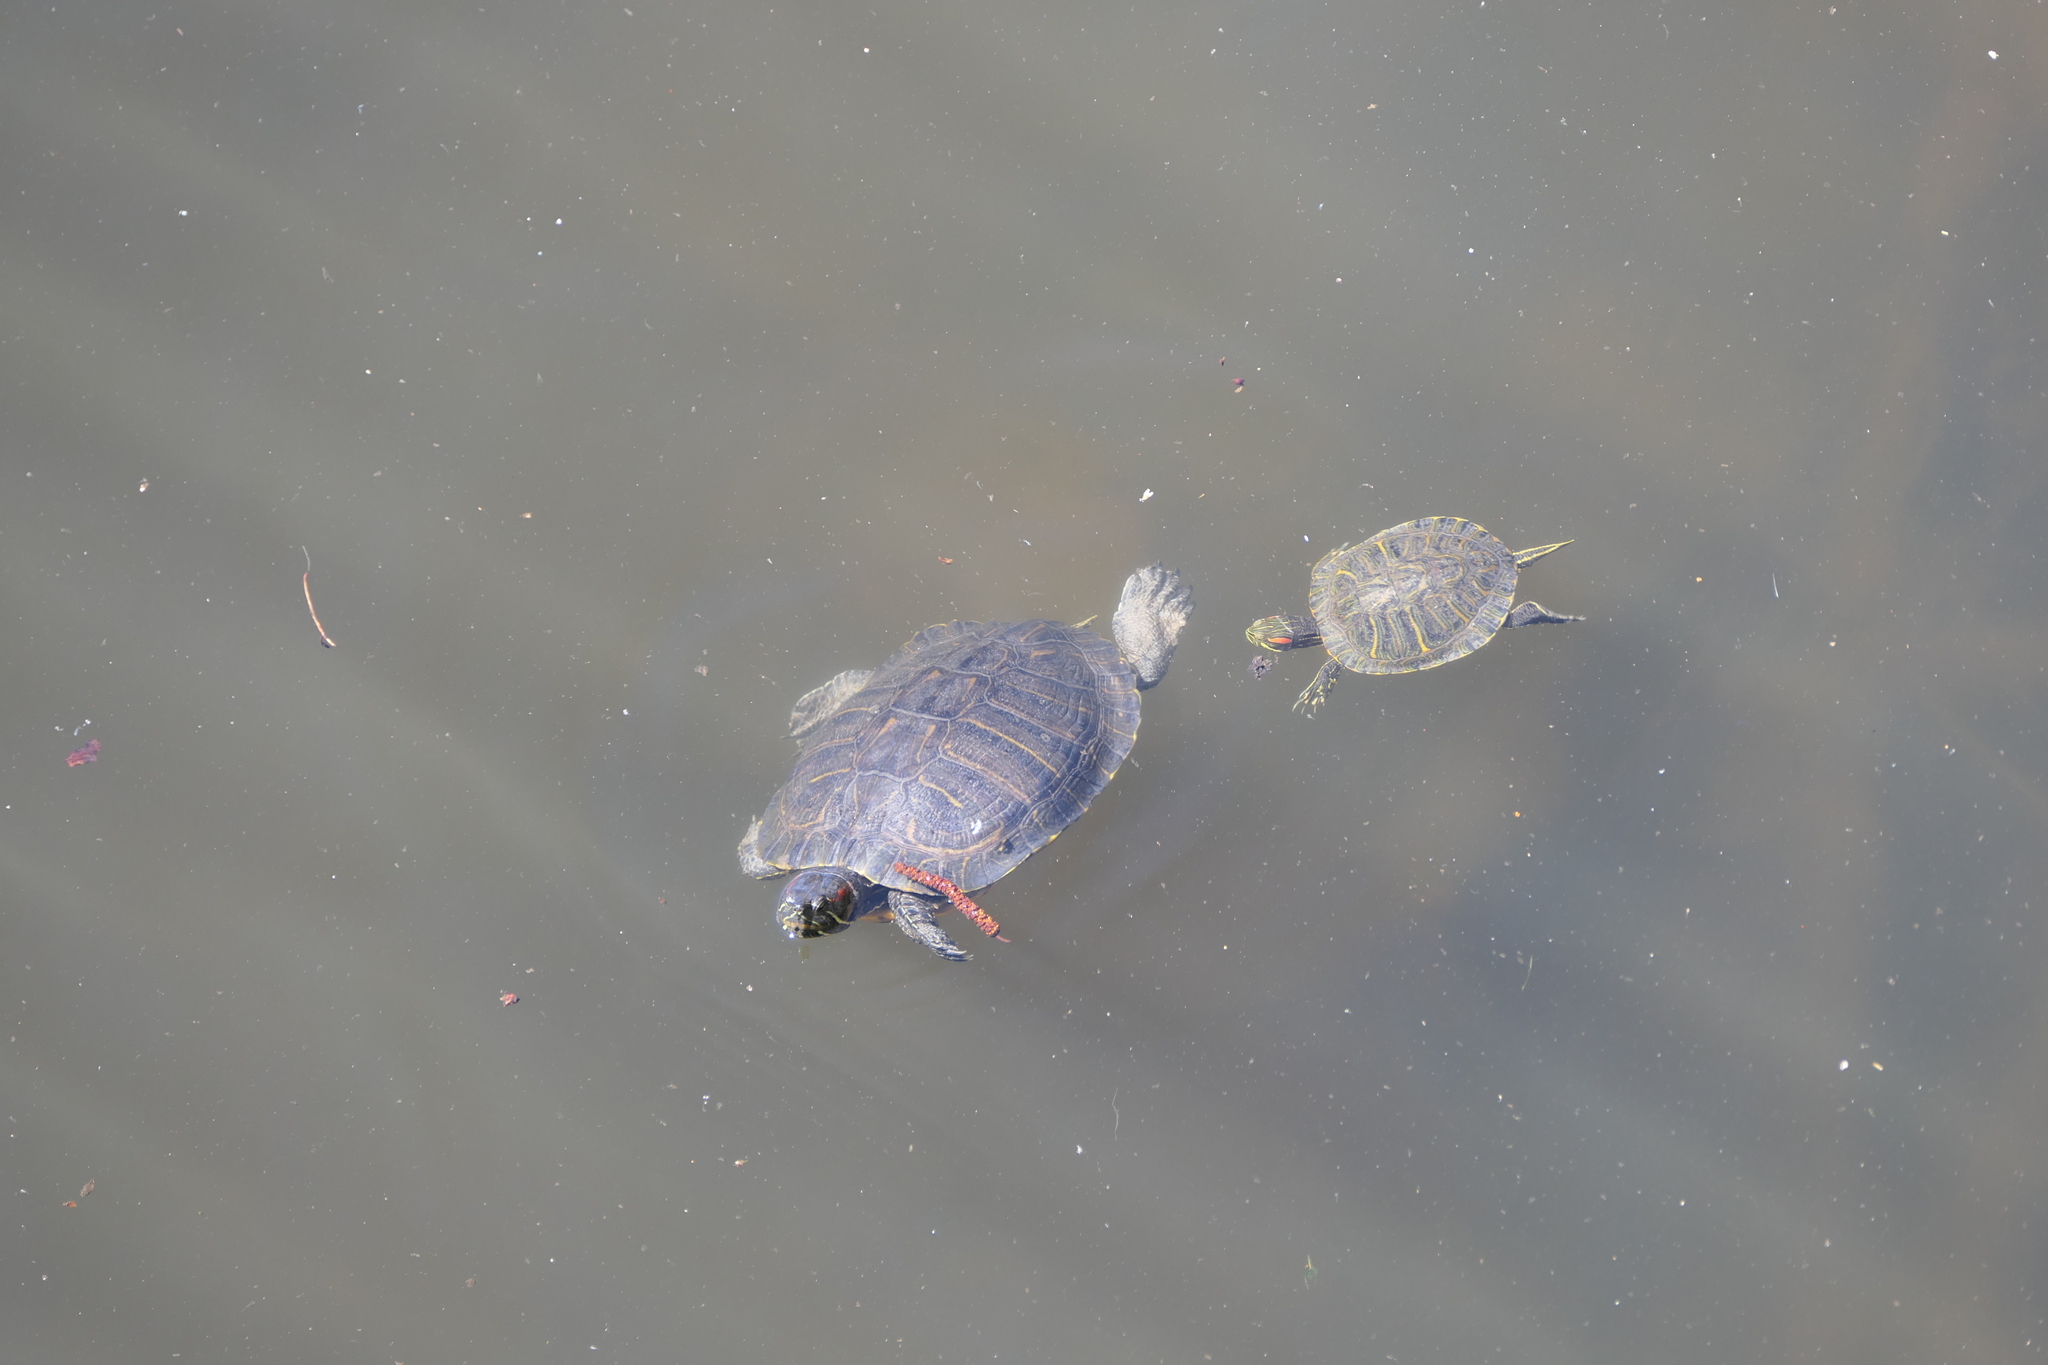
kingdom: Animalia
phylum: Chordata
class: Testudines
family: Emydidae
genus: Trachemys
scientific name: Trachemys scripta
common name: Slider
